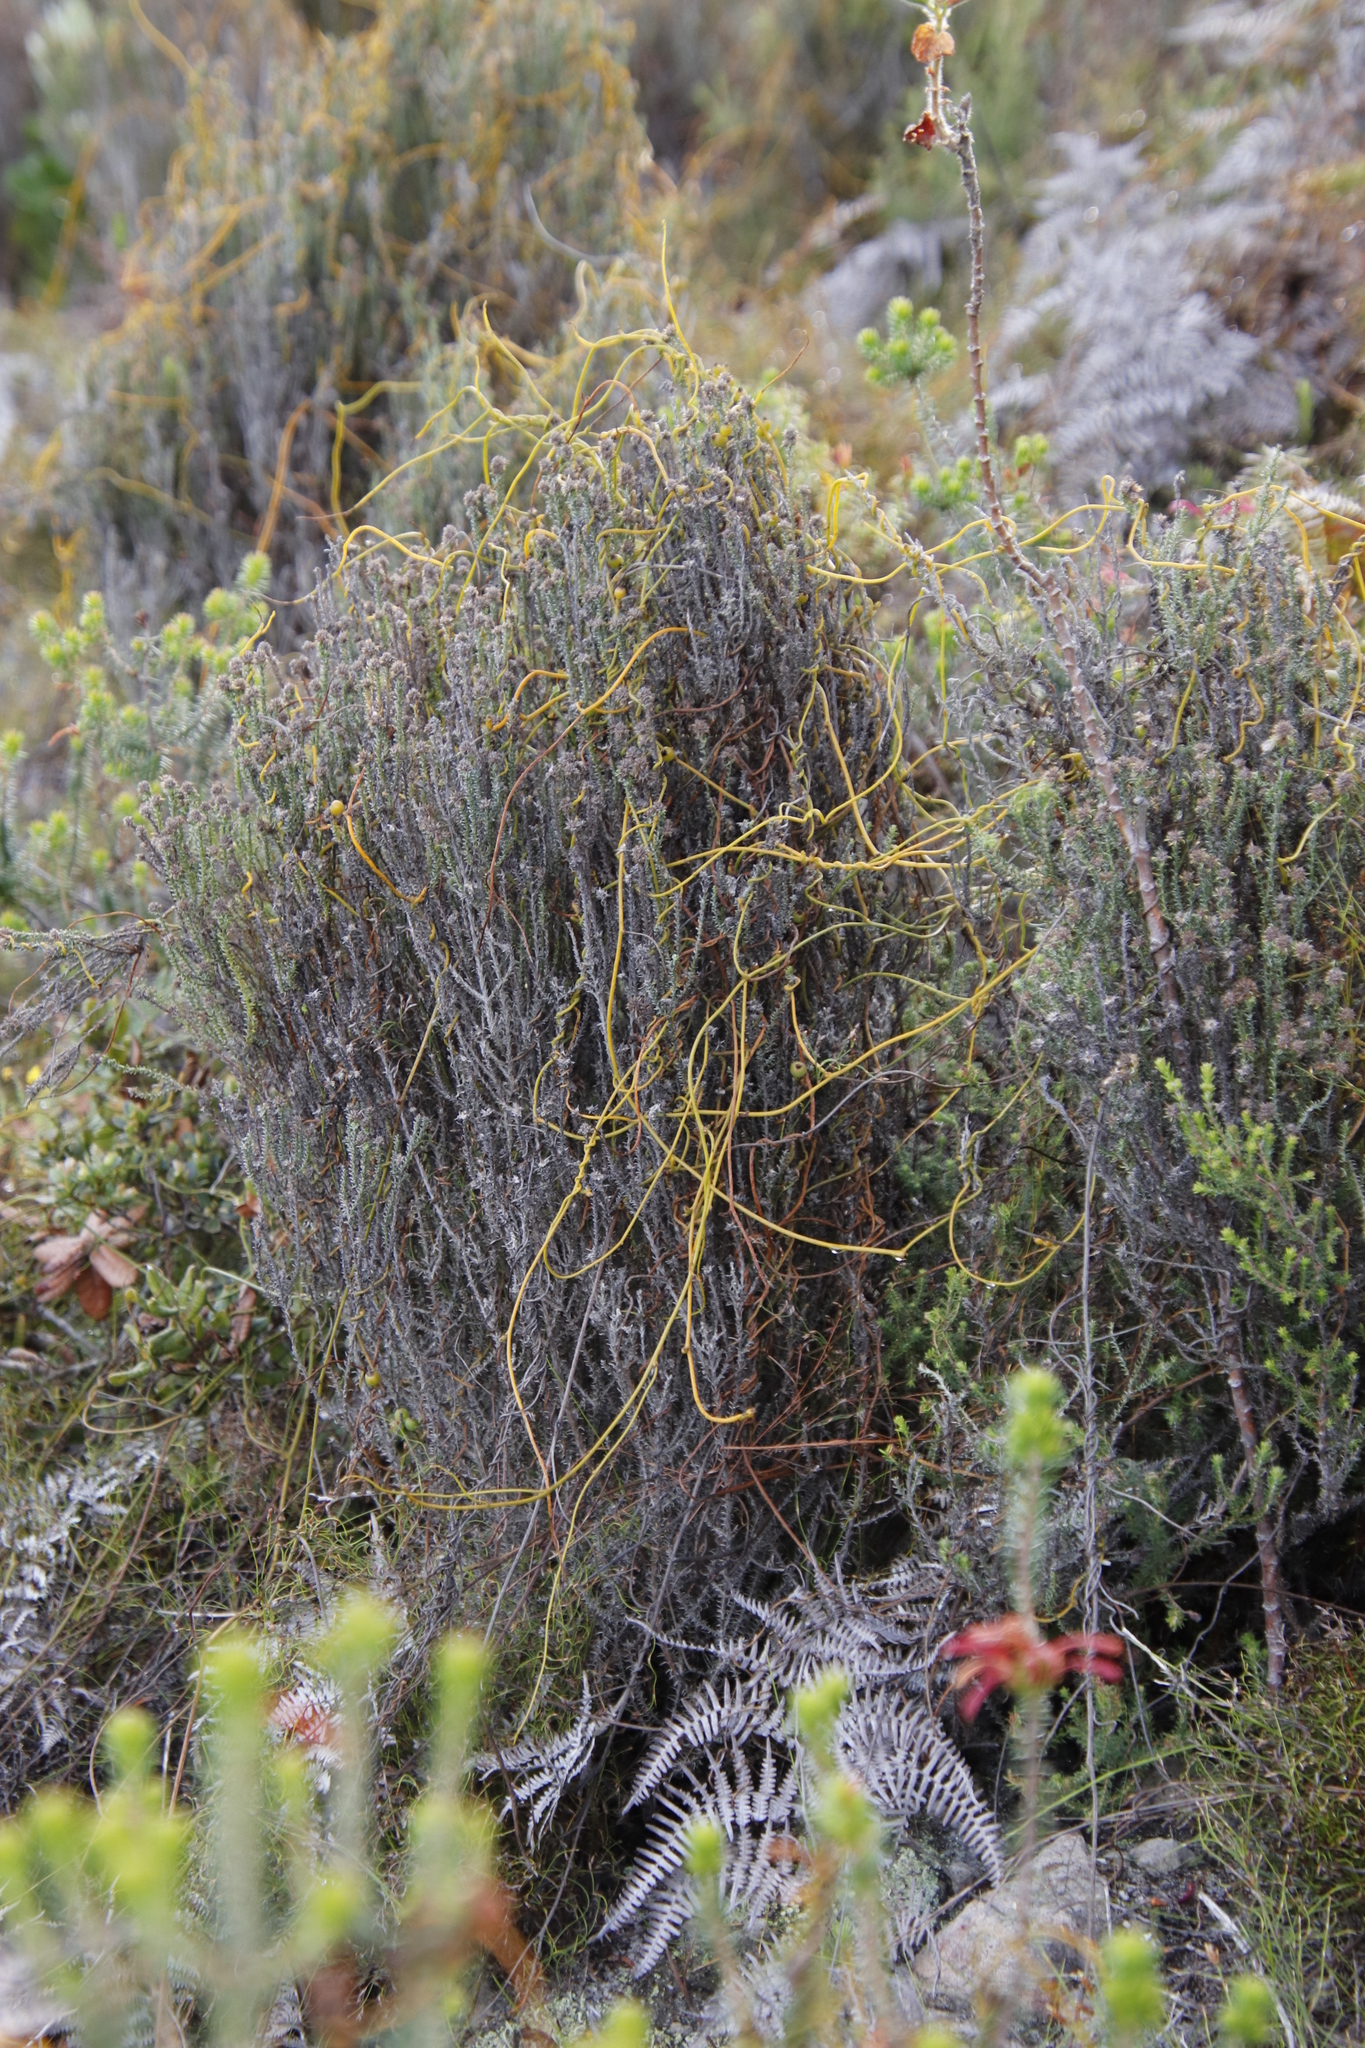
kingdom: Plantae
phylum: Tracheophyta
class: Magnoliopsida
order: Laurales
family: Lauraceae
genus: Cassytha
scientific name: Cassytha ciliolata
